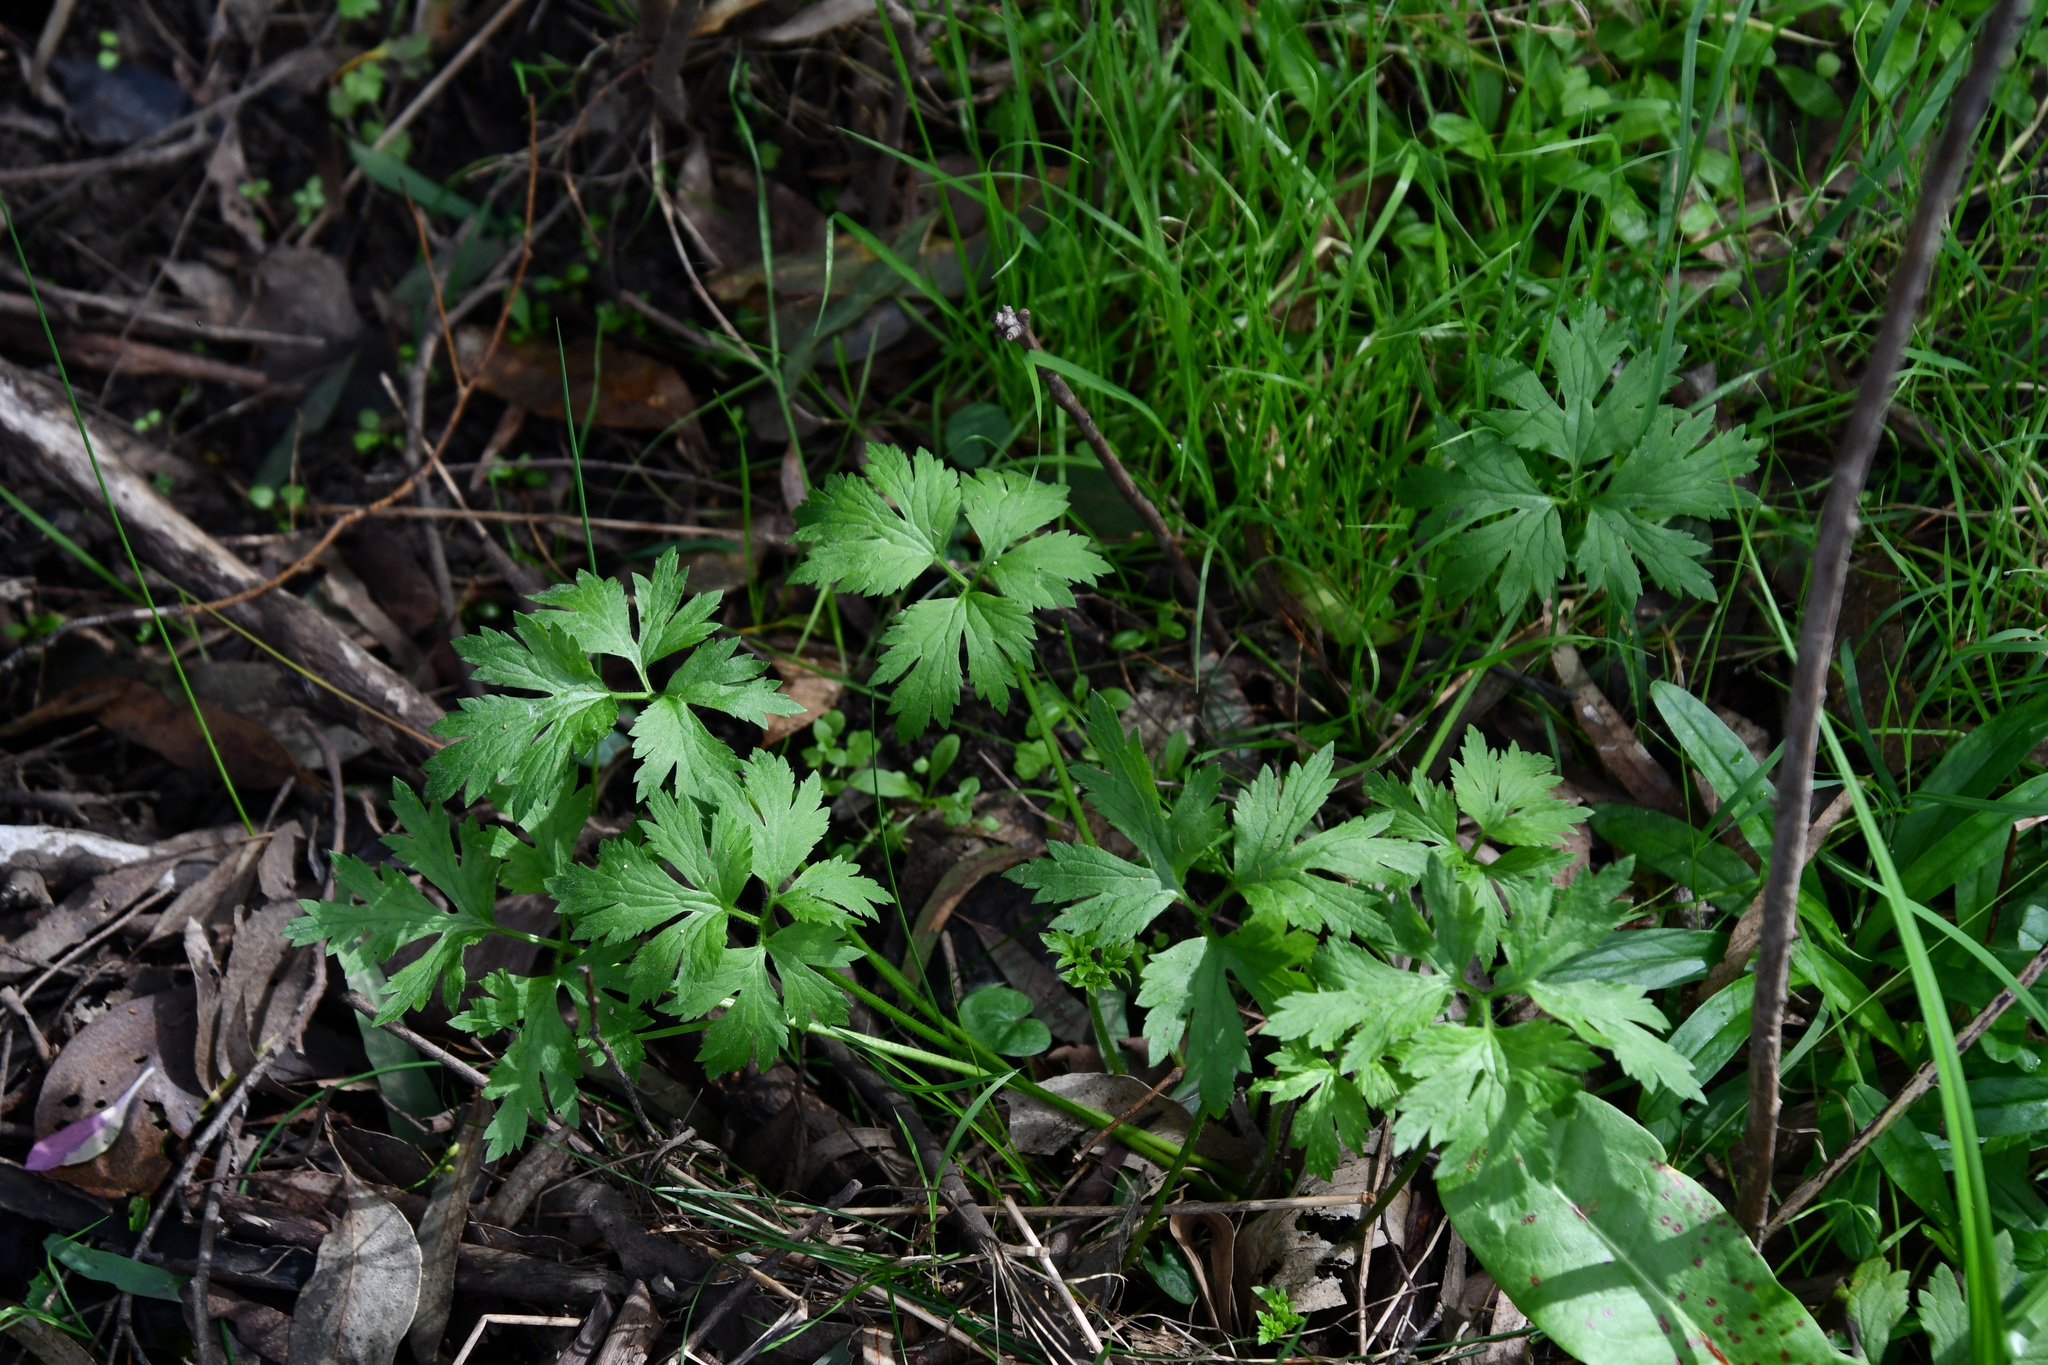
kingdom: Plantae
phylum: Tracheophyta
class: Magnoliopsida
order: Ranunculales
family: Ranunculaceae
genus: Ranunculus
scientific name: Ranunculus lappaceus
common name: Australian buttercup
